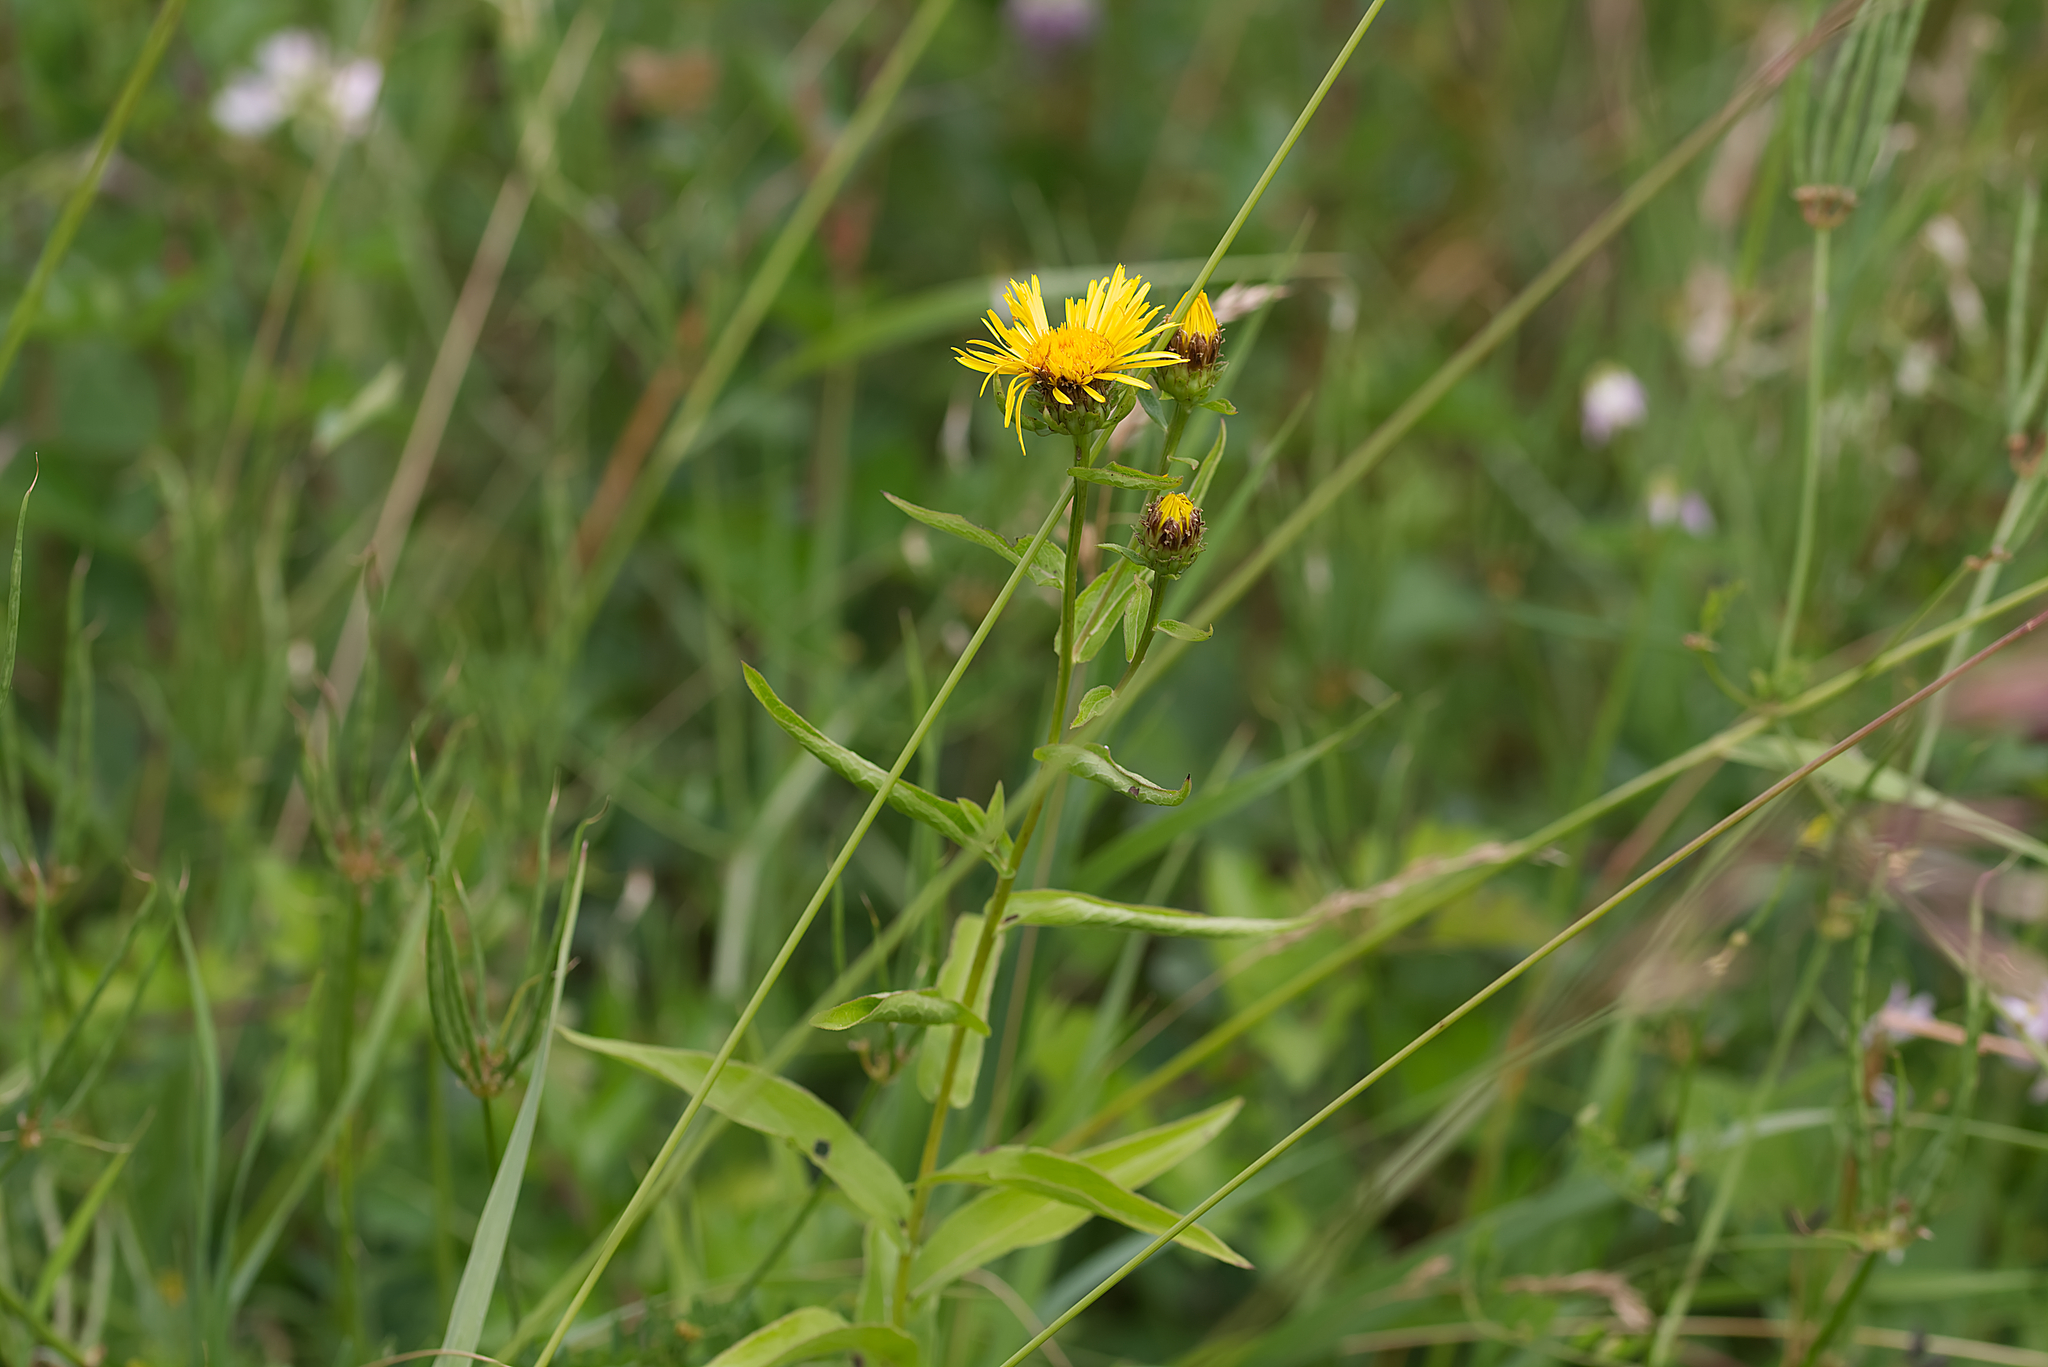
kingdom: Plantae
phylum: Tracheophyta
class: Magnoliopsida
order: Asterales
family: Asteraceae
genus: Pentanema
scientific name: Pentanema salicinum
